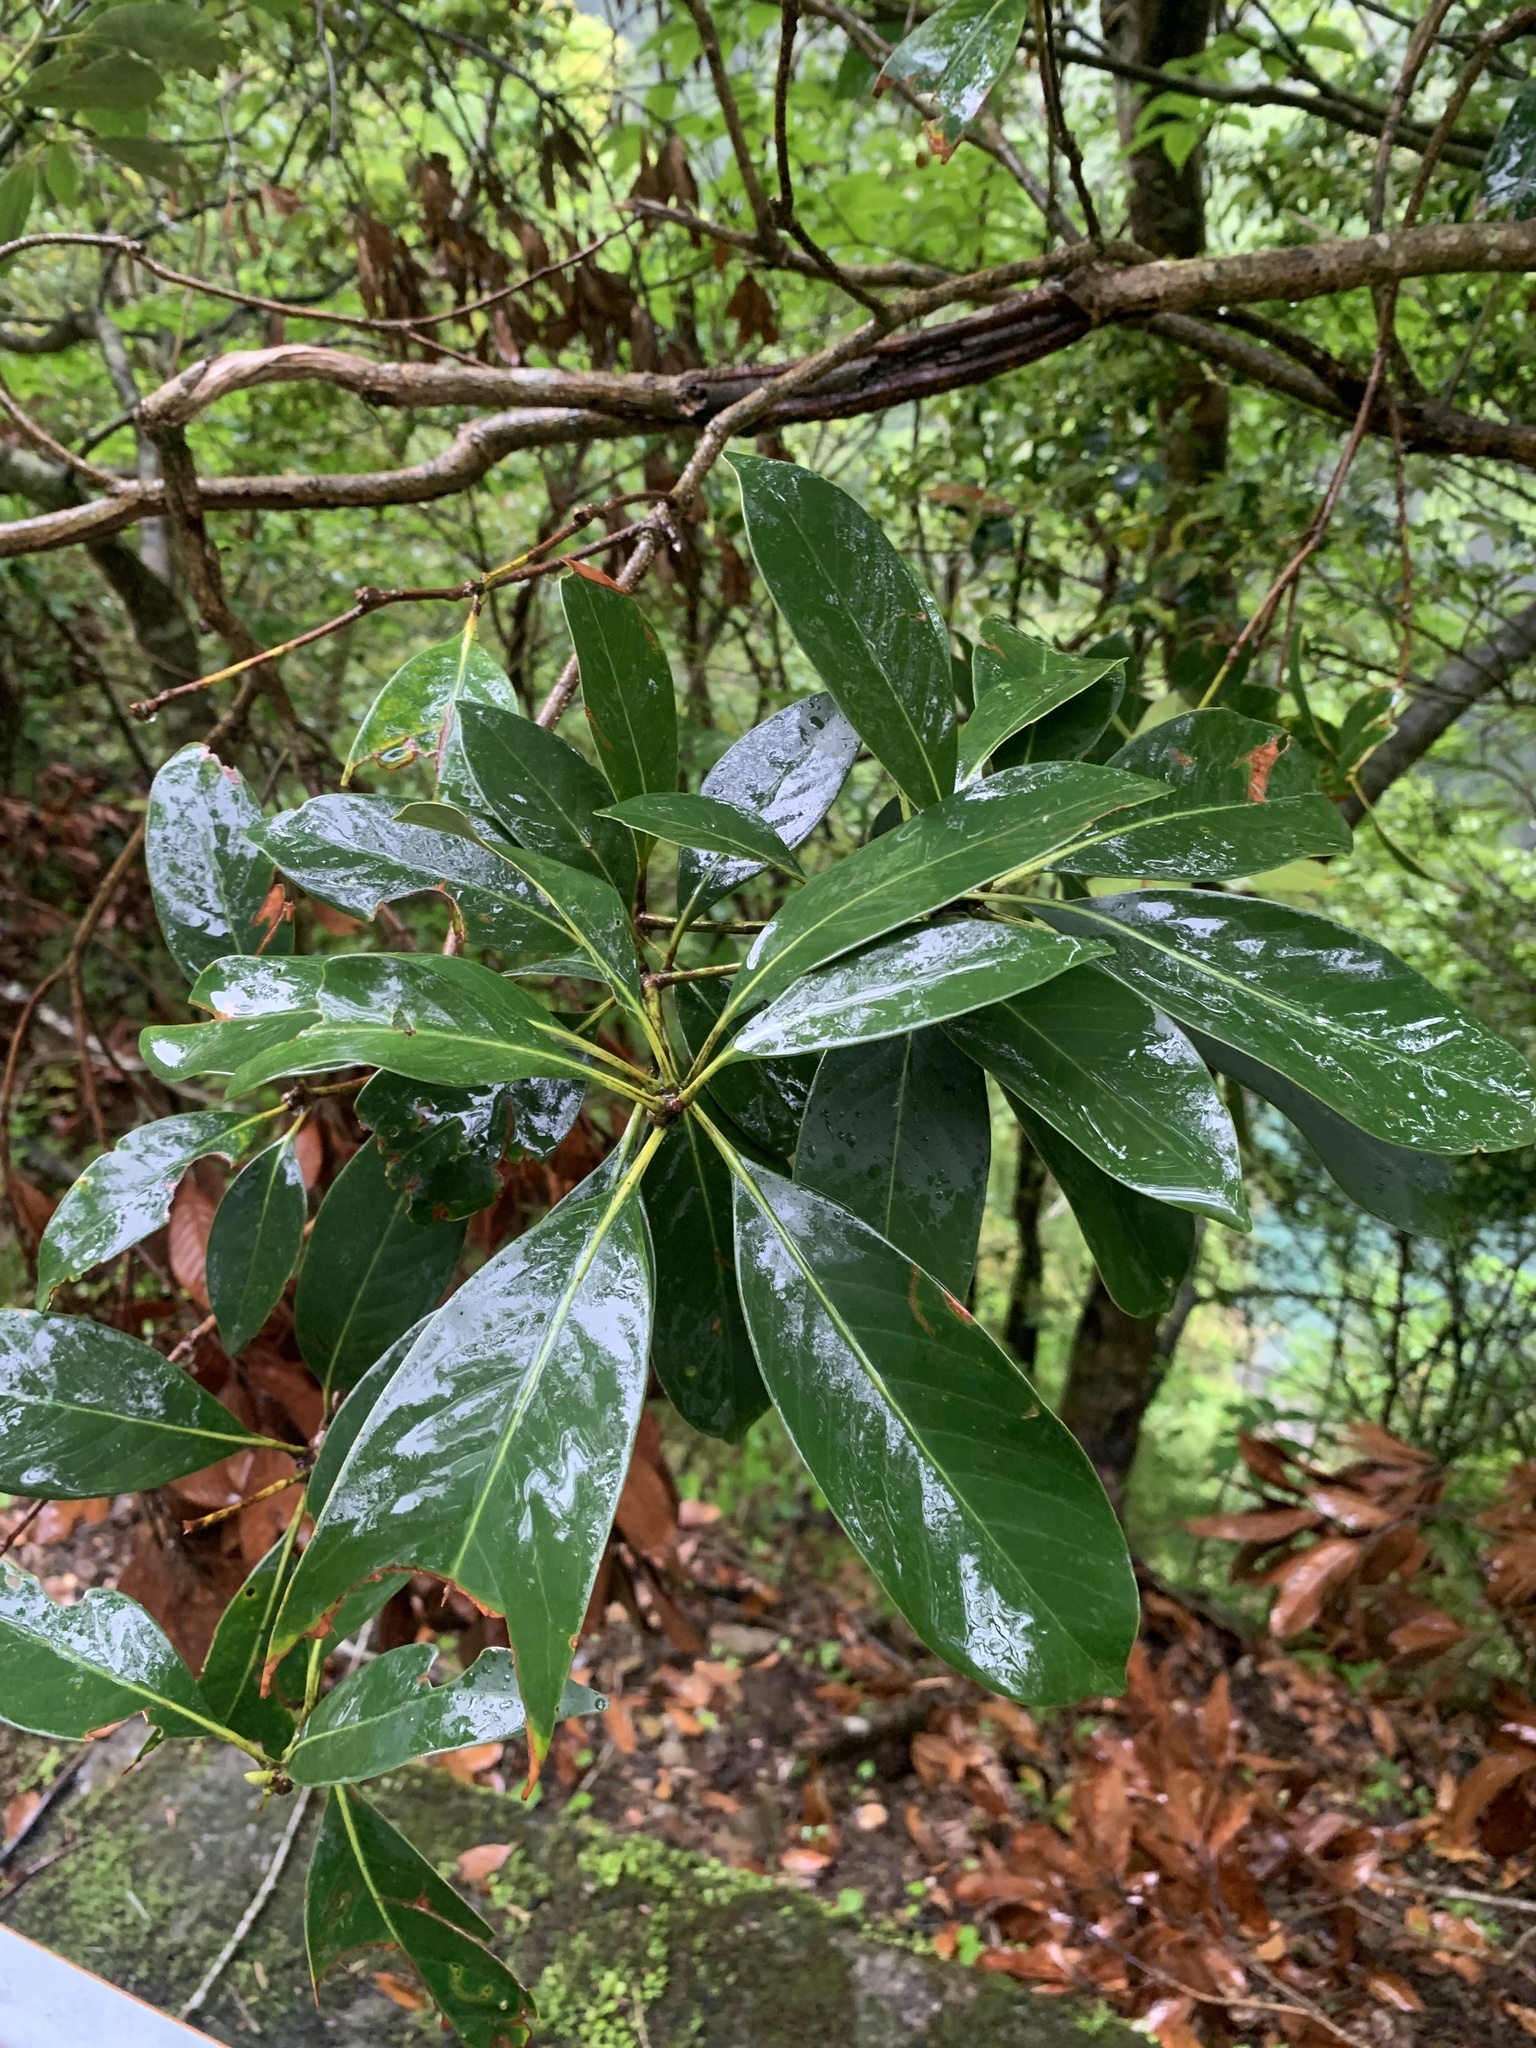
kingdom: Plantae
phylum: Tracheophyta
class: Magnoliopsida
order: Fagales
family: Fagaceae
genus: Lithocarpus
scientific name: Lithocarpus edulis
